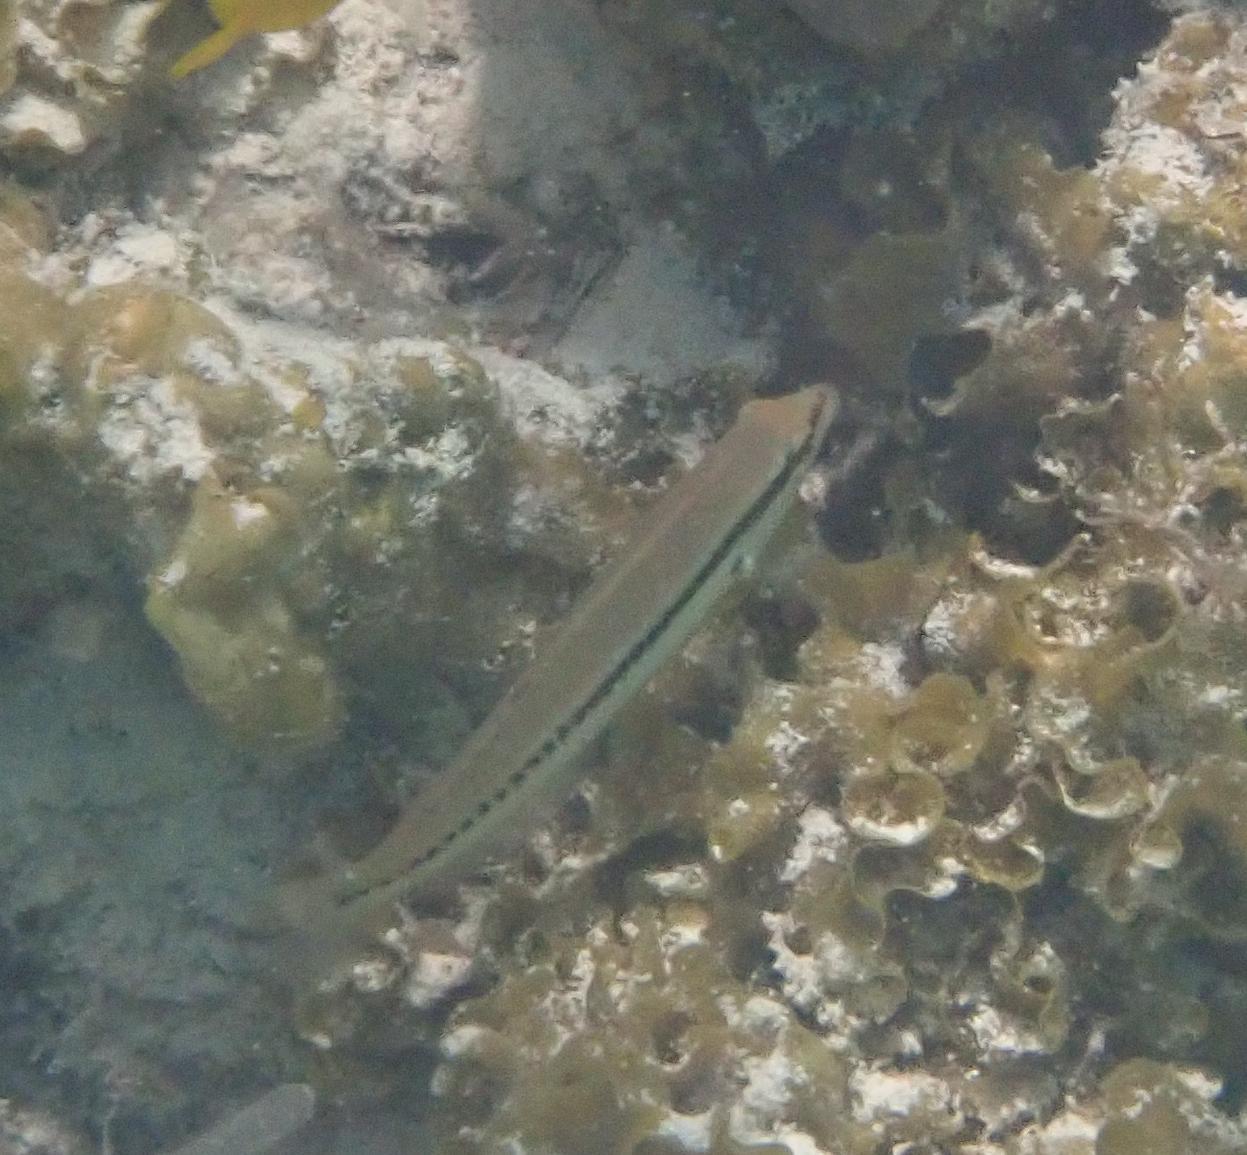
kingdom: Animalia
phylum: Chordata
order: Perciformes
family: Labridae
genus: Halichoeres
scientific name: Halichoeres bivittatus
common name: Slippery dick
